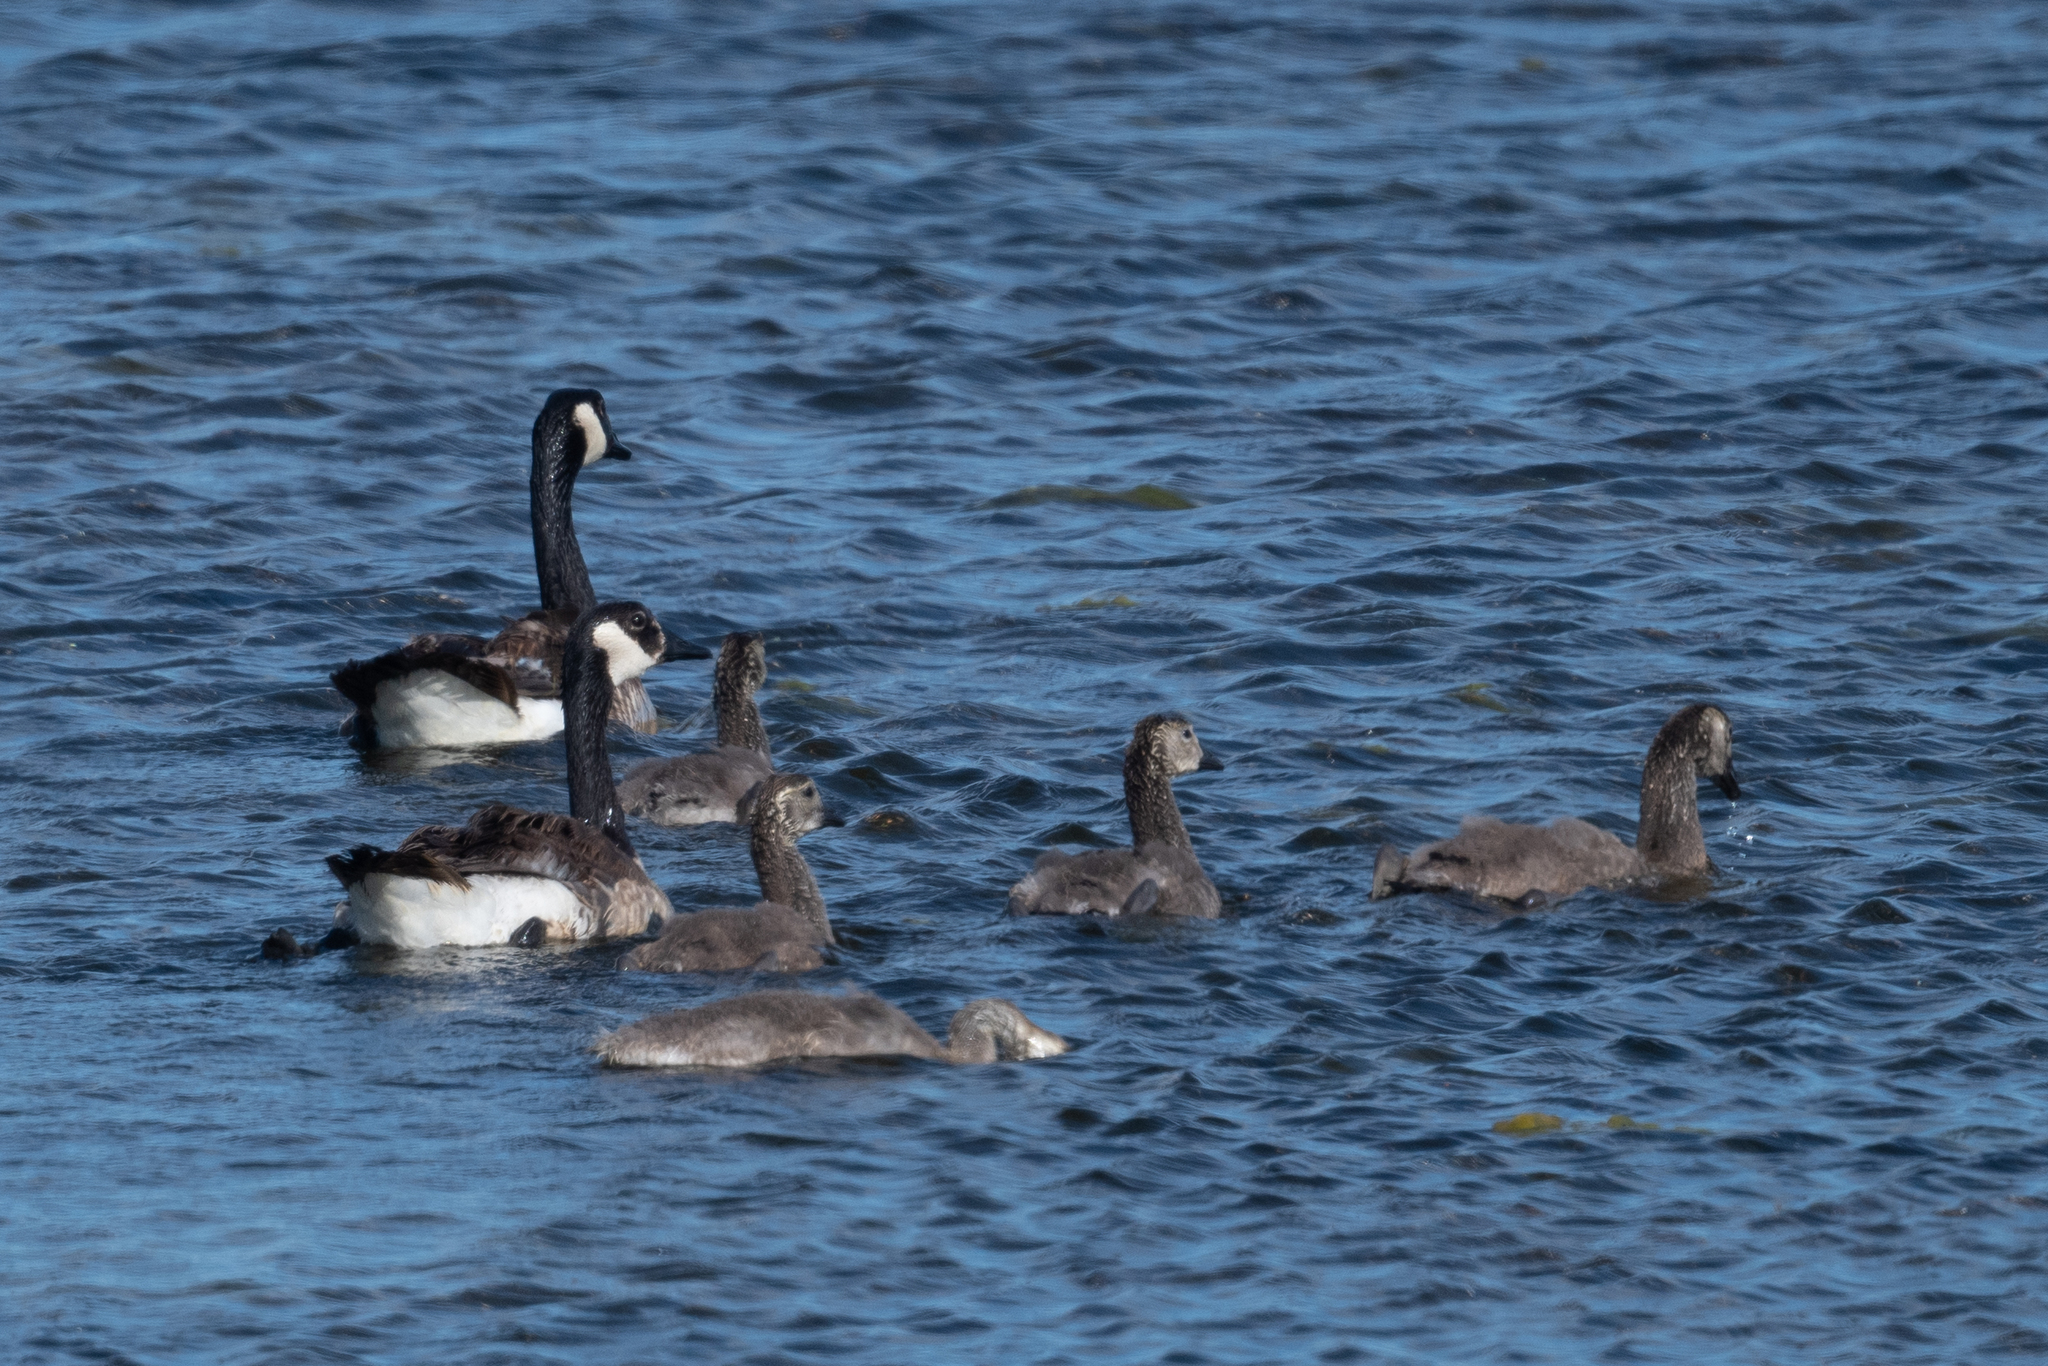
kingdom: Animalia
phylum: Chordata
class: Aves
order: Anseriformes
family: Anatidae
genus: Branta
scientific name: Branta canadensis
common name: Canada goose
